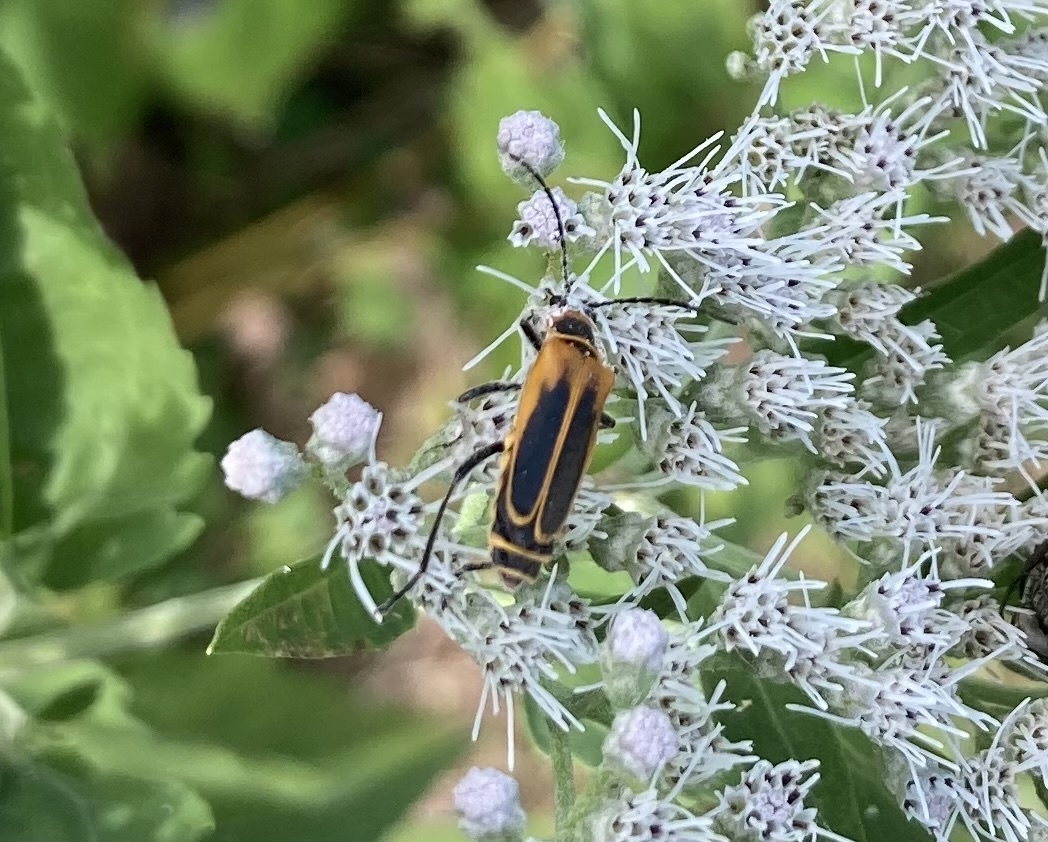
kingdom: Animalia
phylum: Arthropoda
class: Insecta
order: Coleoptera
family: Cantharidae
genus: Chauliognathus
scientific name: Chauliognathus pensylvanicus
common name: Goldenrod soldier beetle
